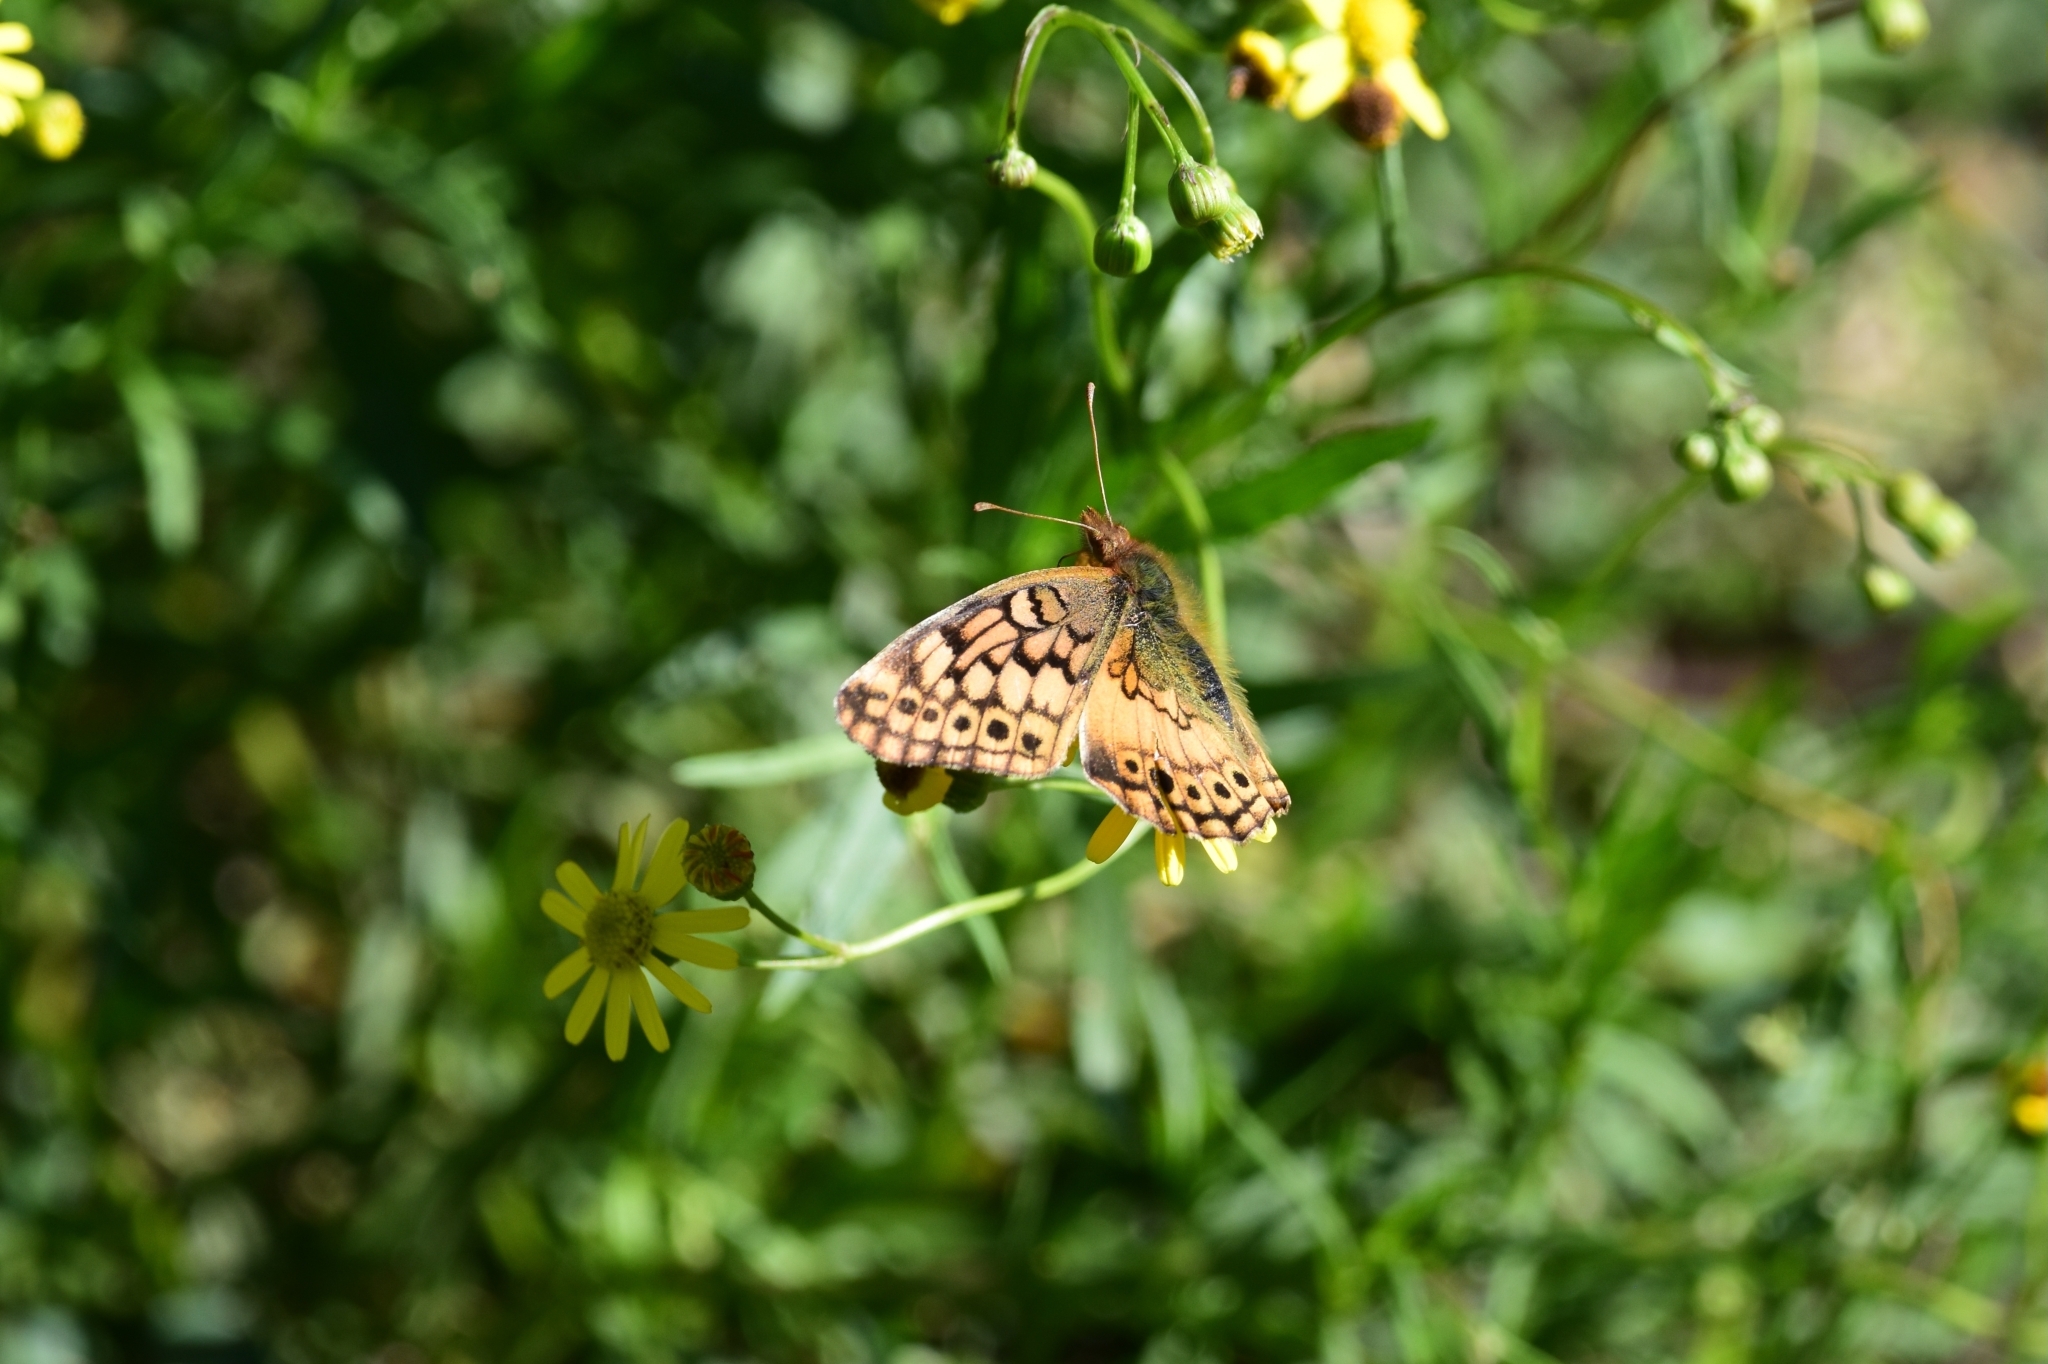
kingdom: Animalia
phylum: Arthropoda
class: Insecta
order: Lepidoptera
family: Nymphalidae
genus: Euptoieta
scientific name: Euptoieta hortensia
